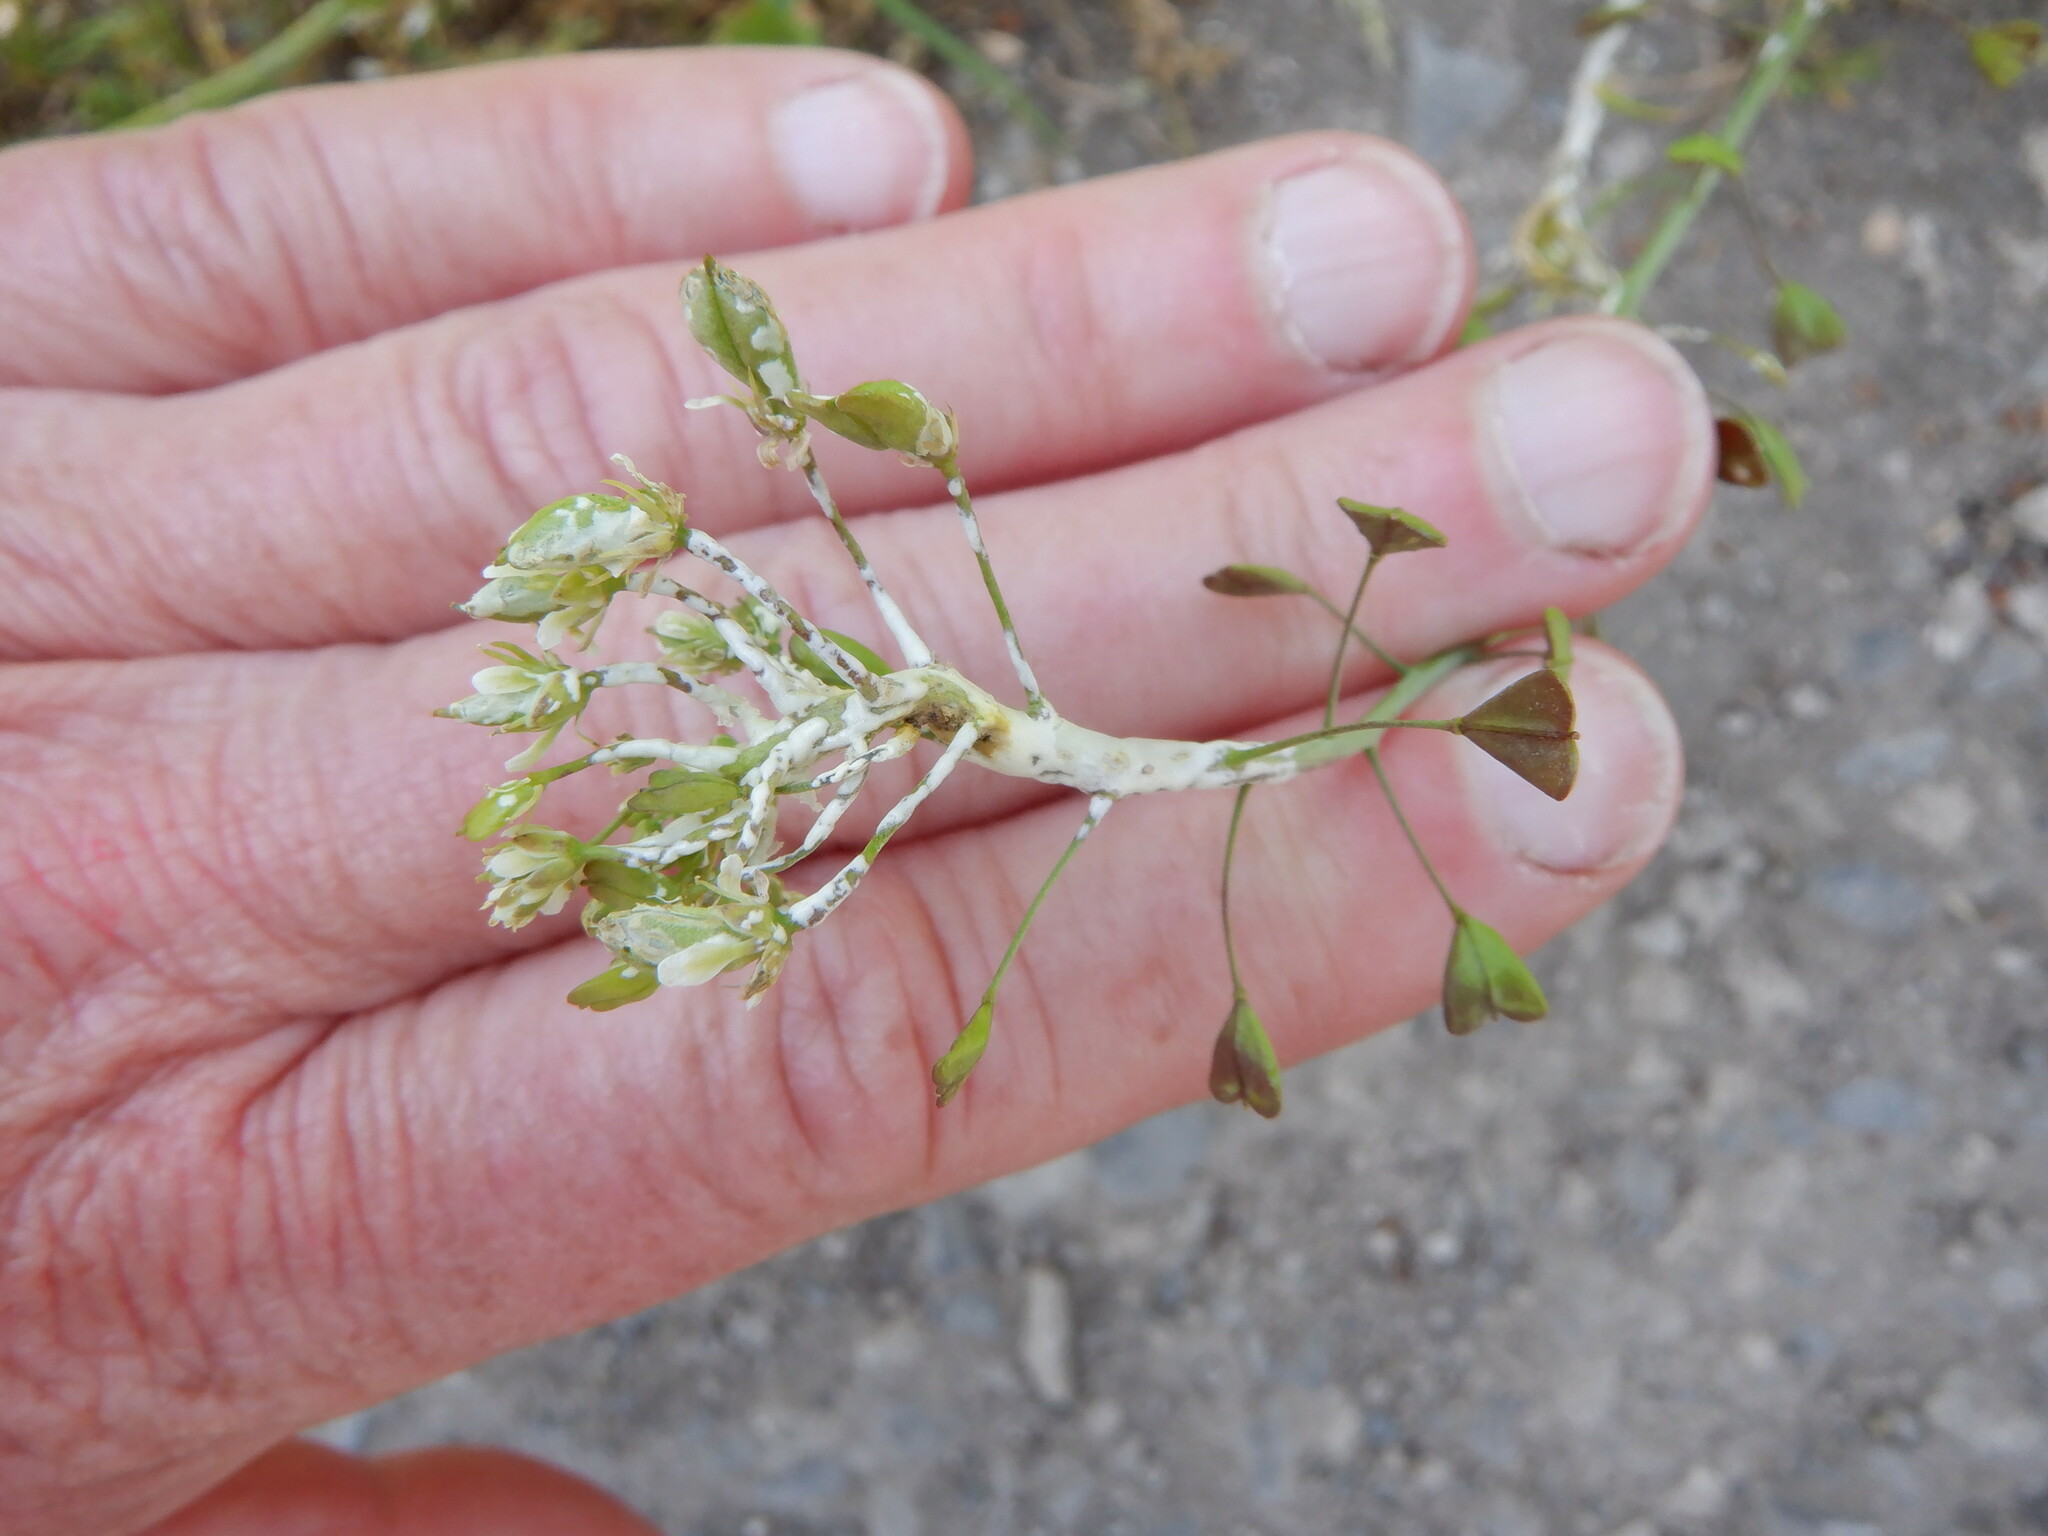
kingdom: Chromista
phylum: Oomycota
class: Peronosporea
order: Albuginales
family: Albuginaceae
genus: Albugo
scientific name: Albugo candida
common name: Crucifer white blister
